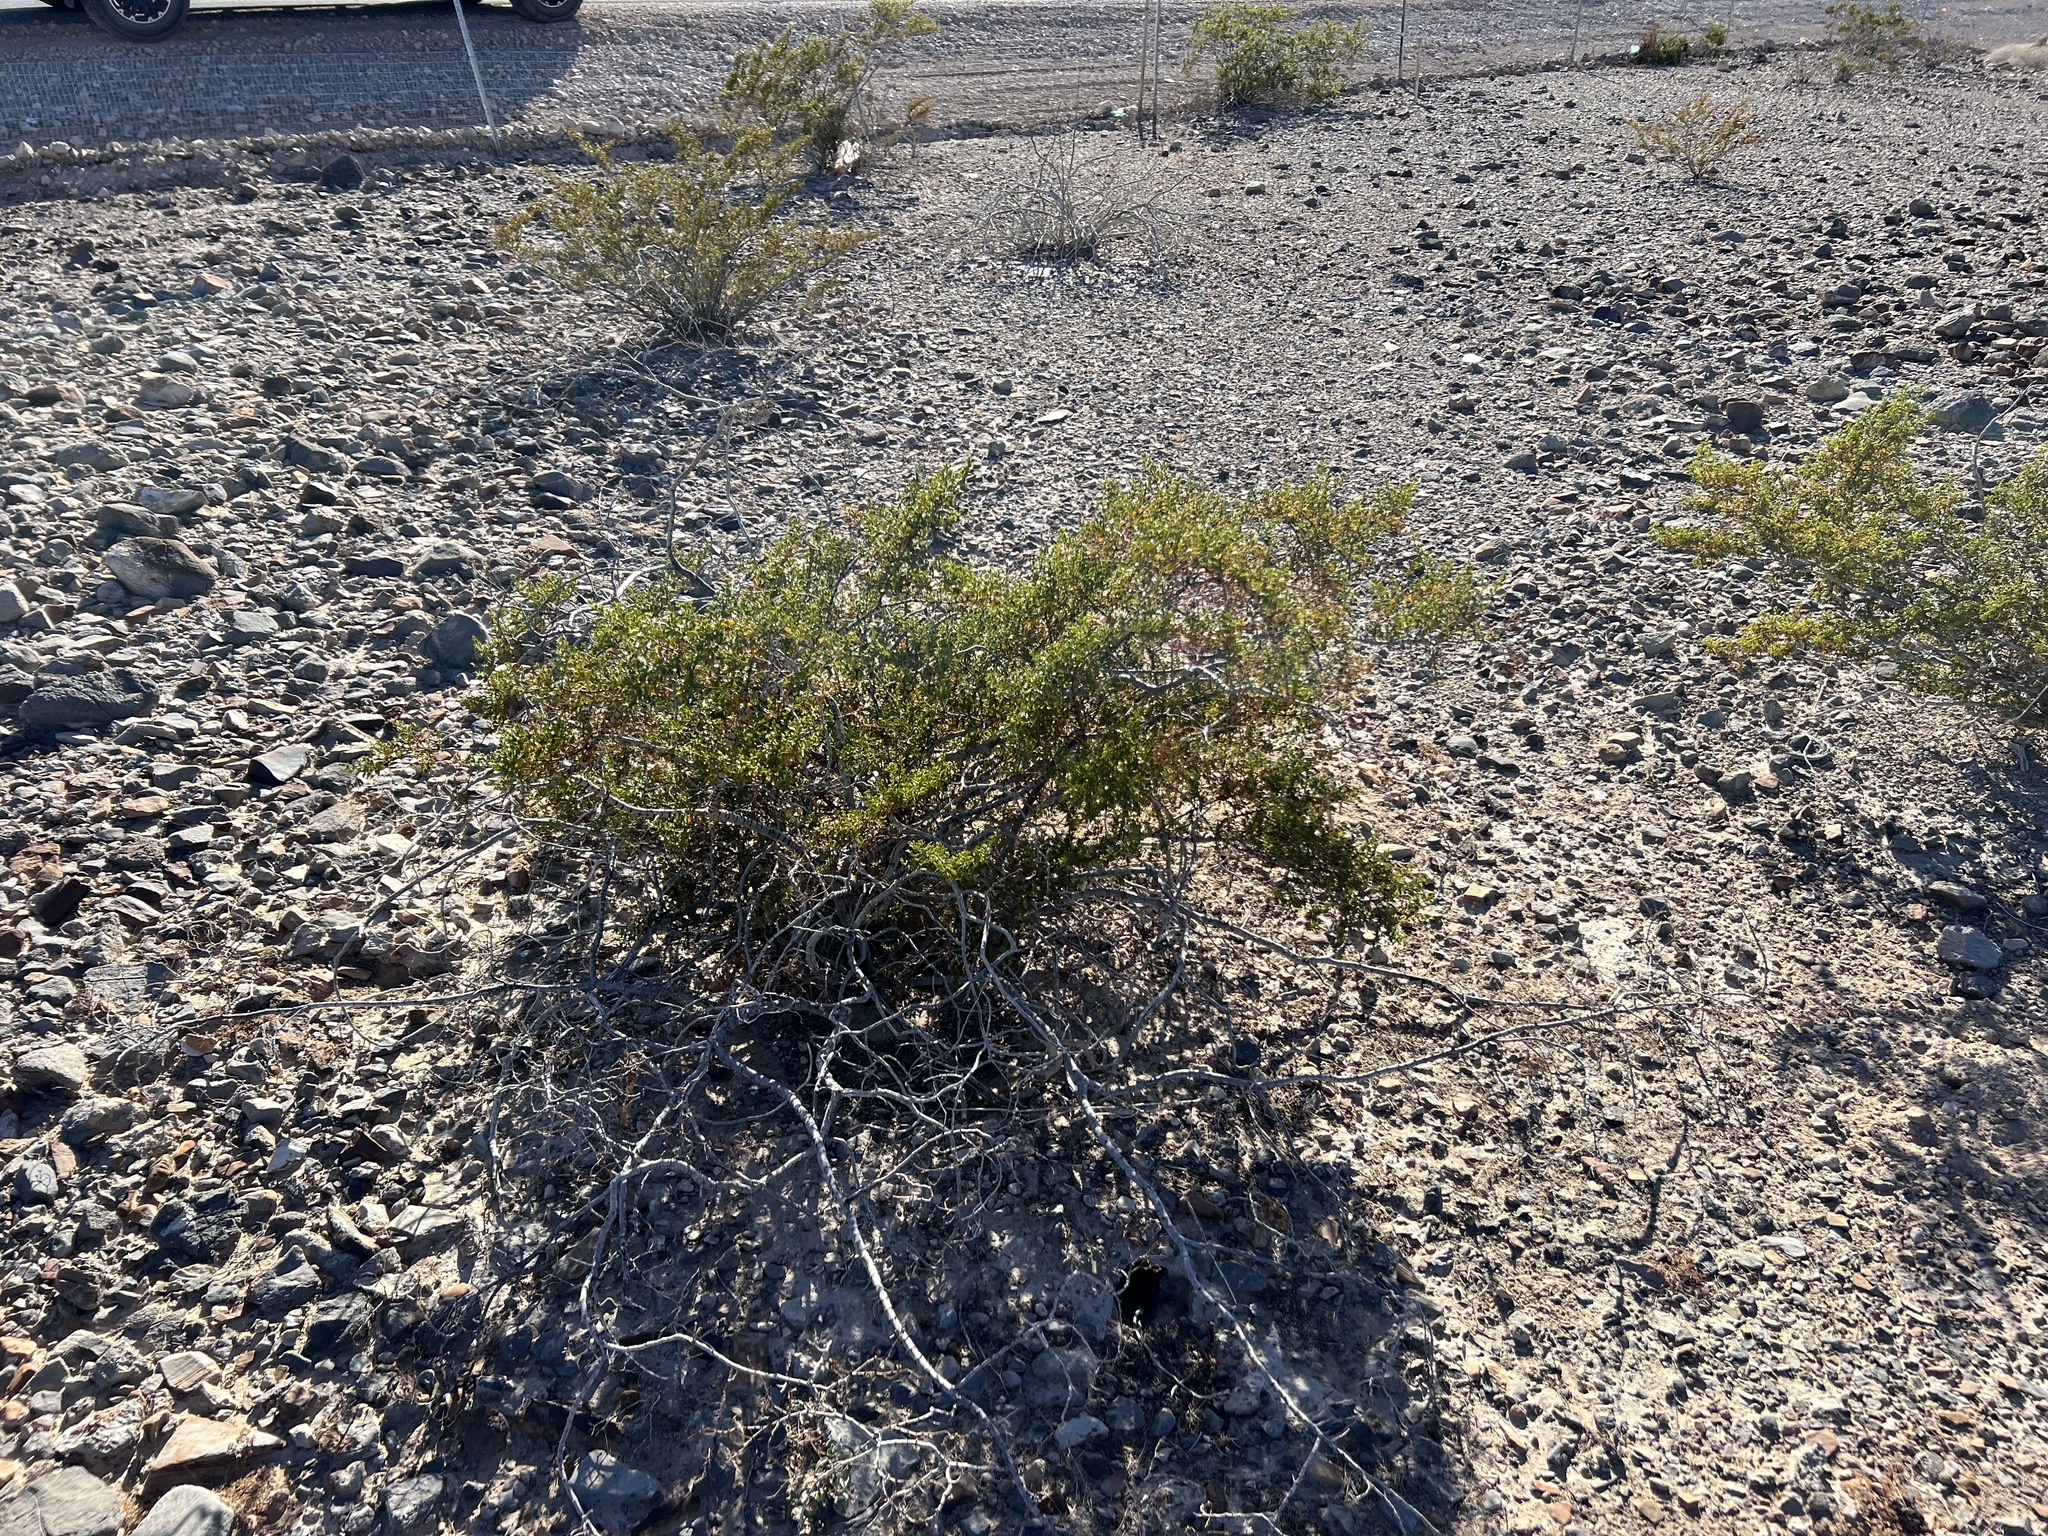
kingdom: Plantae
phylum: Tracheophyta
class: Magnoliopsida
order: Zygophyllales
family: Zygophyllaceae
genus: Larrea
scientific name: Larrea tridentata
